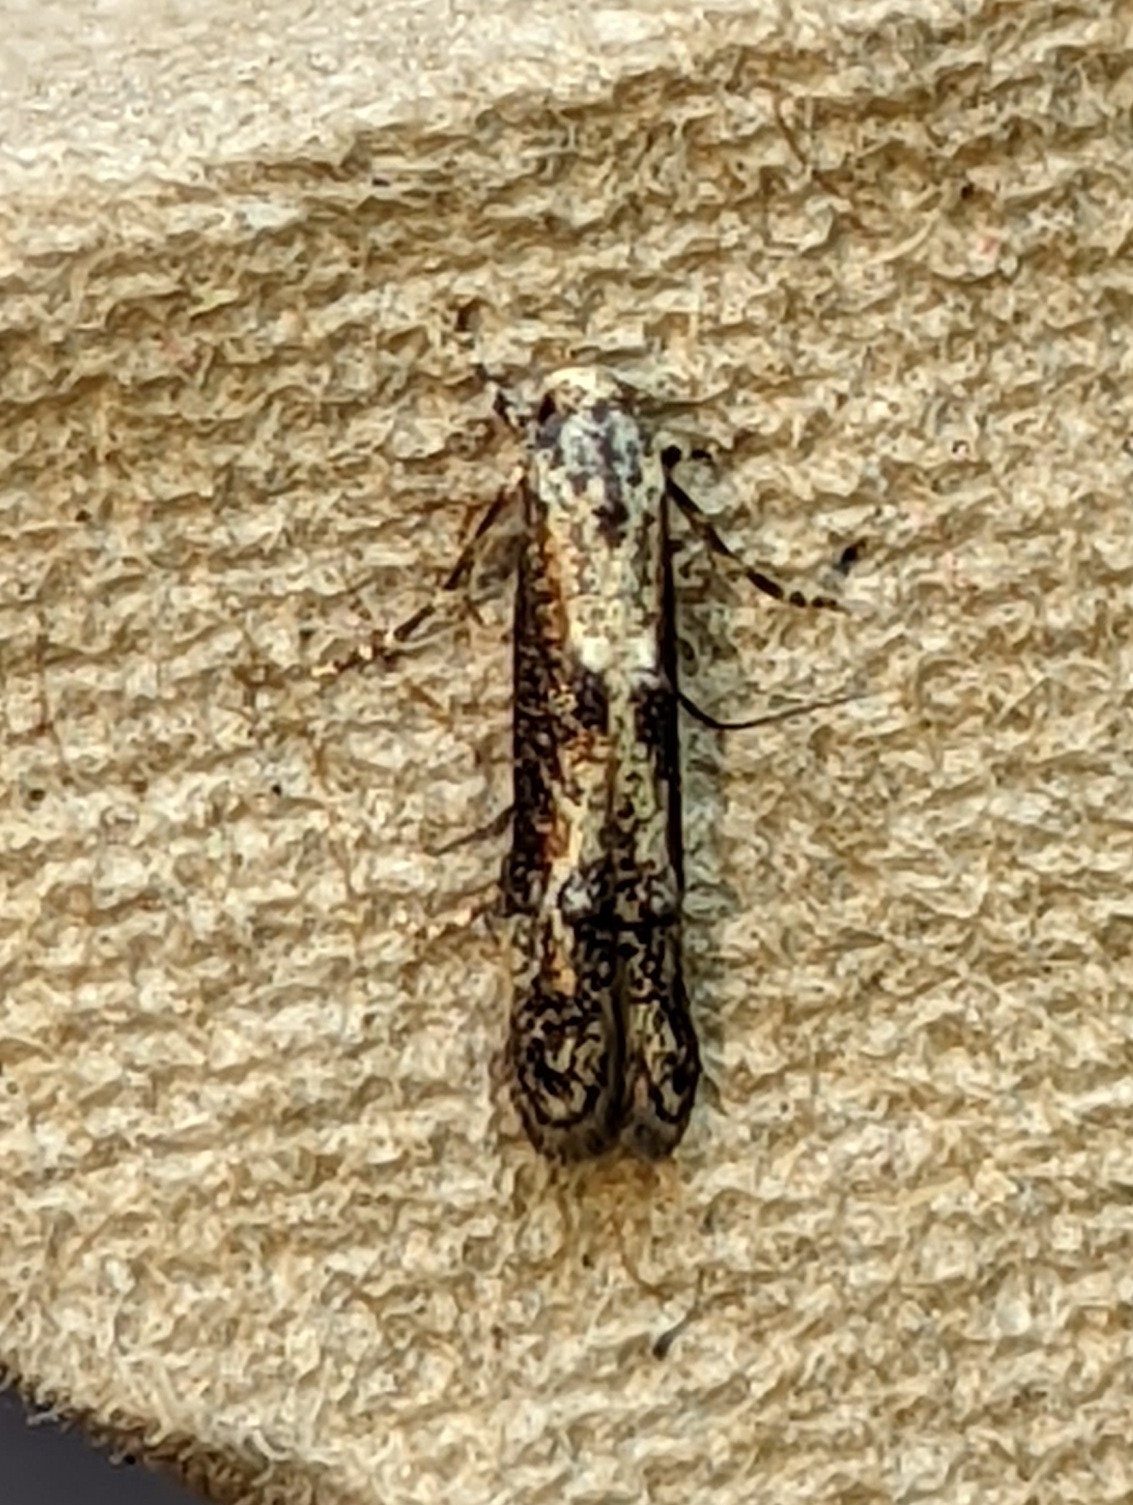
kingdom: Animalia
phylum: Arthropoda
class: Insecta
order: Lepidoptera
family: Blastobasidae
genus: Blastobasis
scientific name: Blastobasis adustella
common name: Dingy dowd
